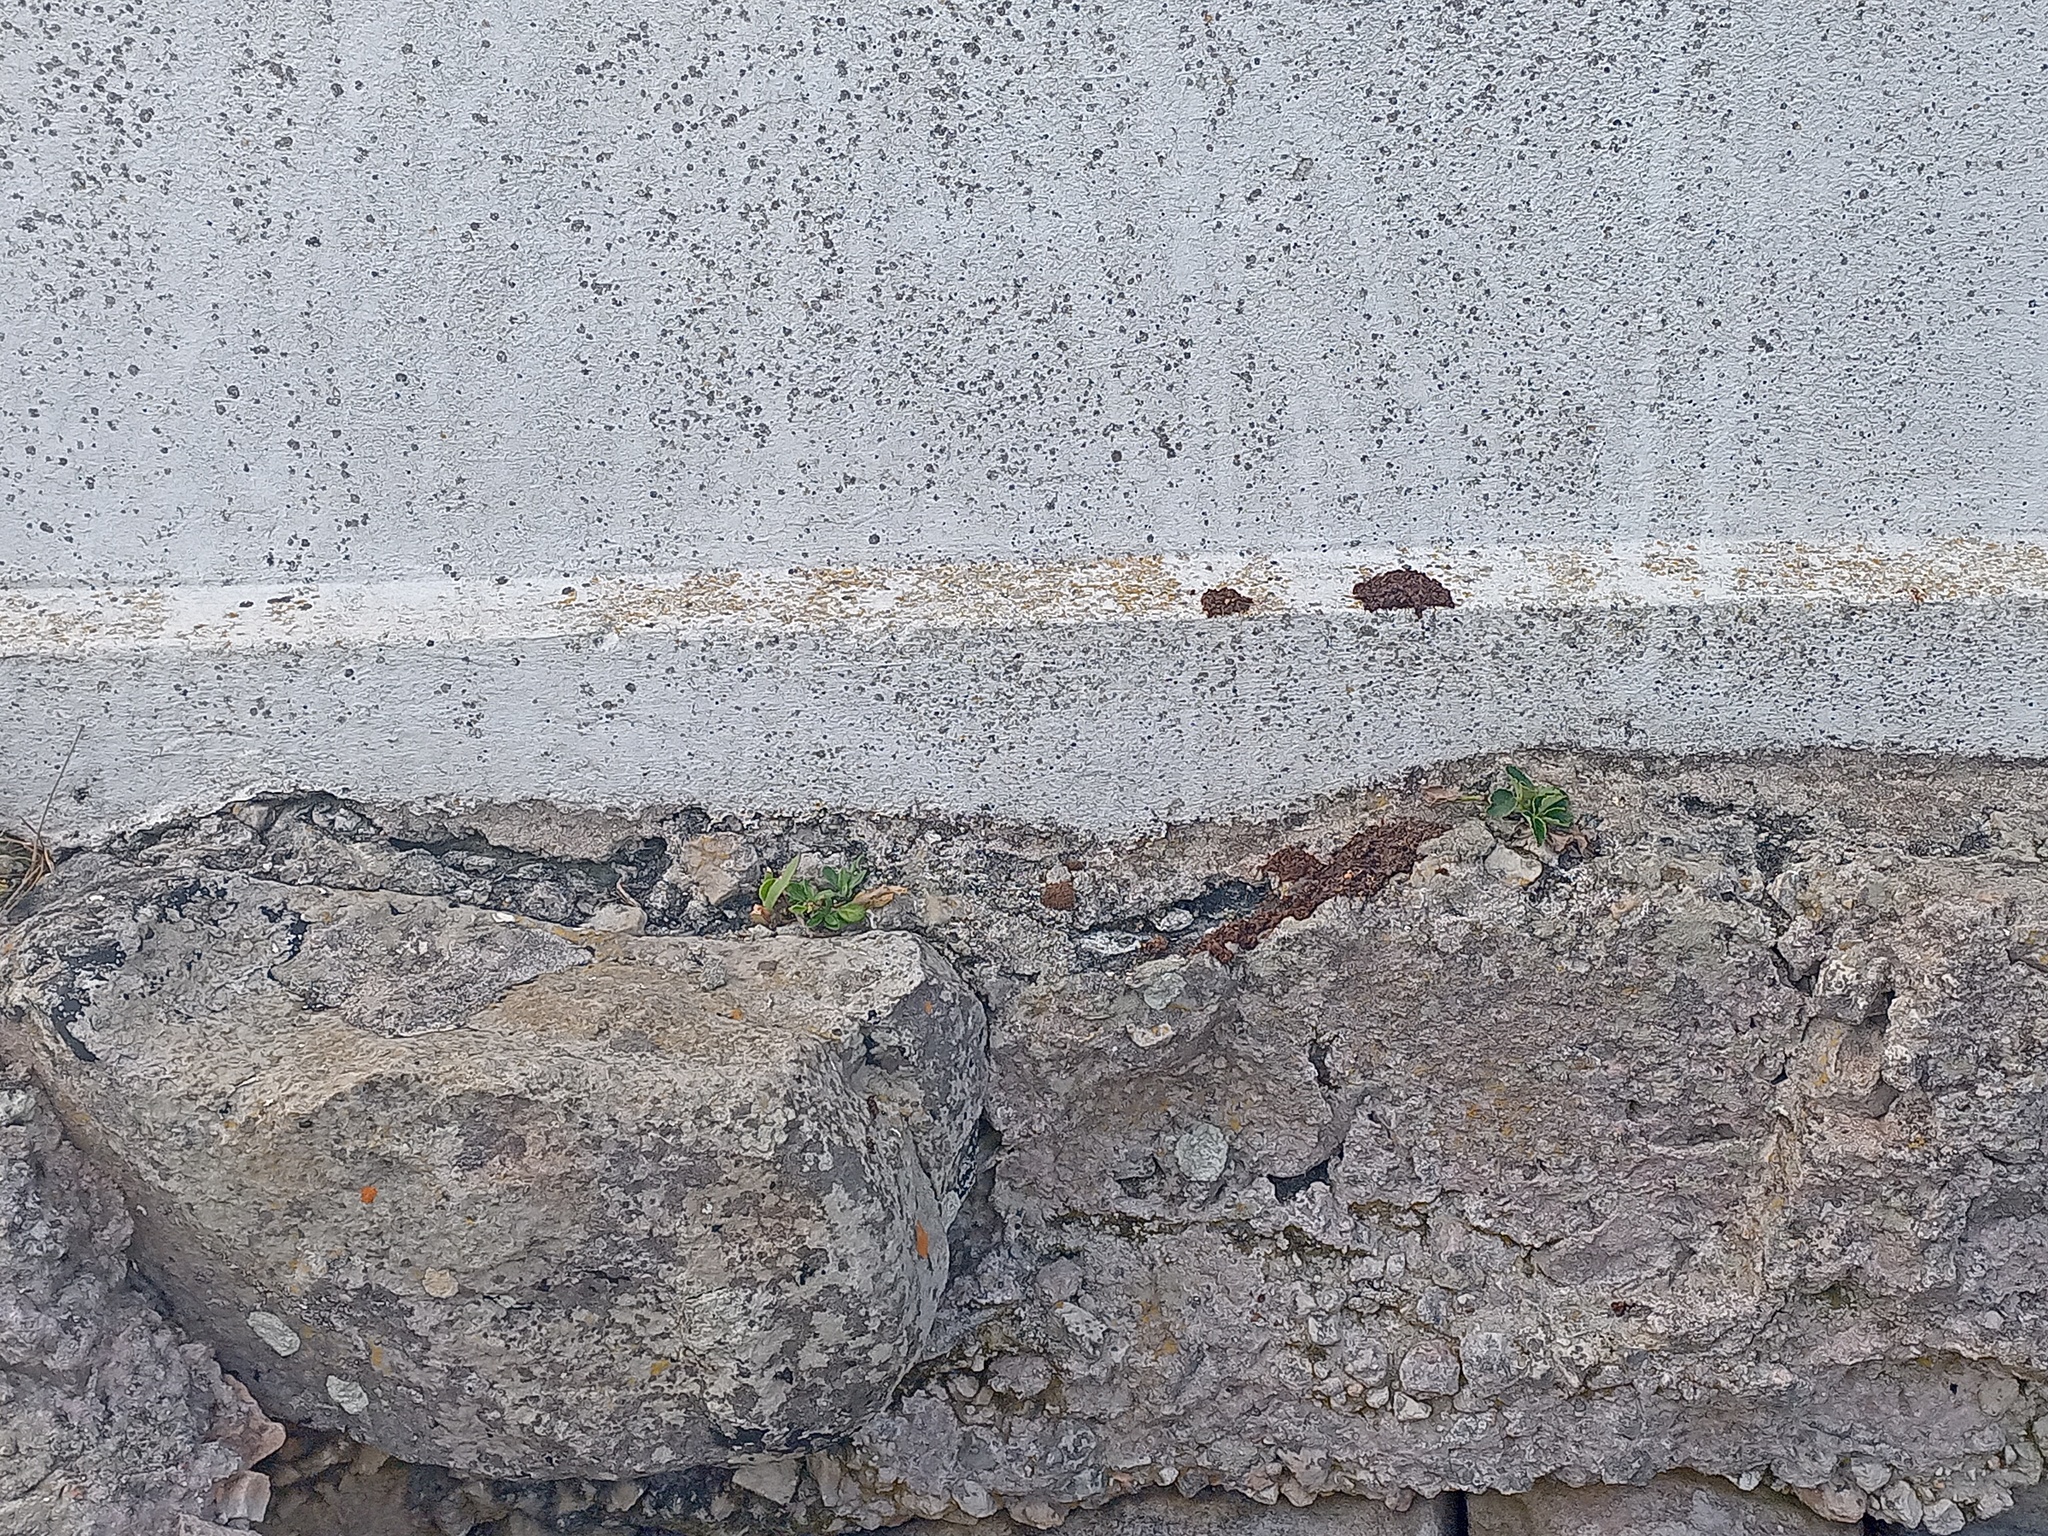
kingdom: Plantae
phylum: Tracheophyta
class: Magnoliopsida
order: Ranunculales
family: Ranunculaceae
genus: Knowltonia
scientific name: Knowltonia vesicatoria
